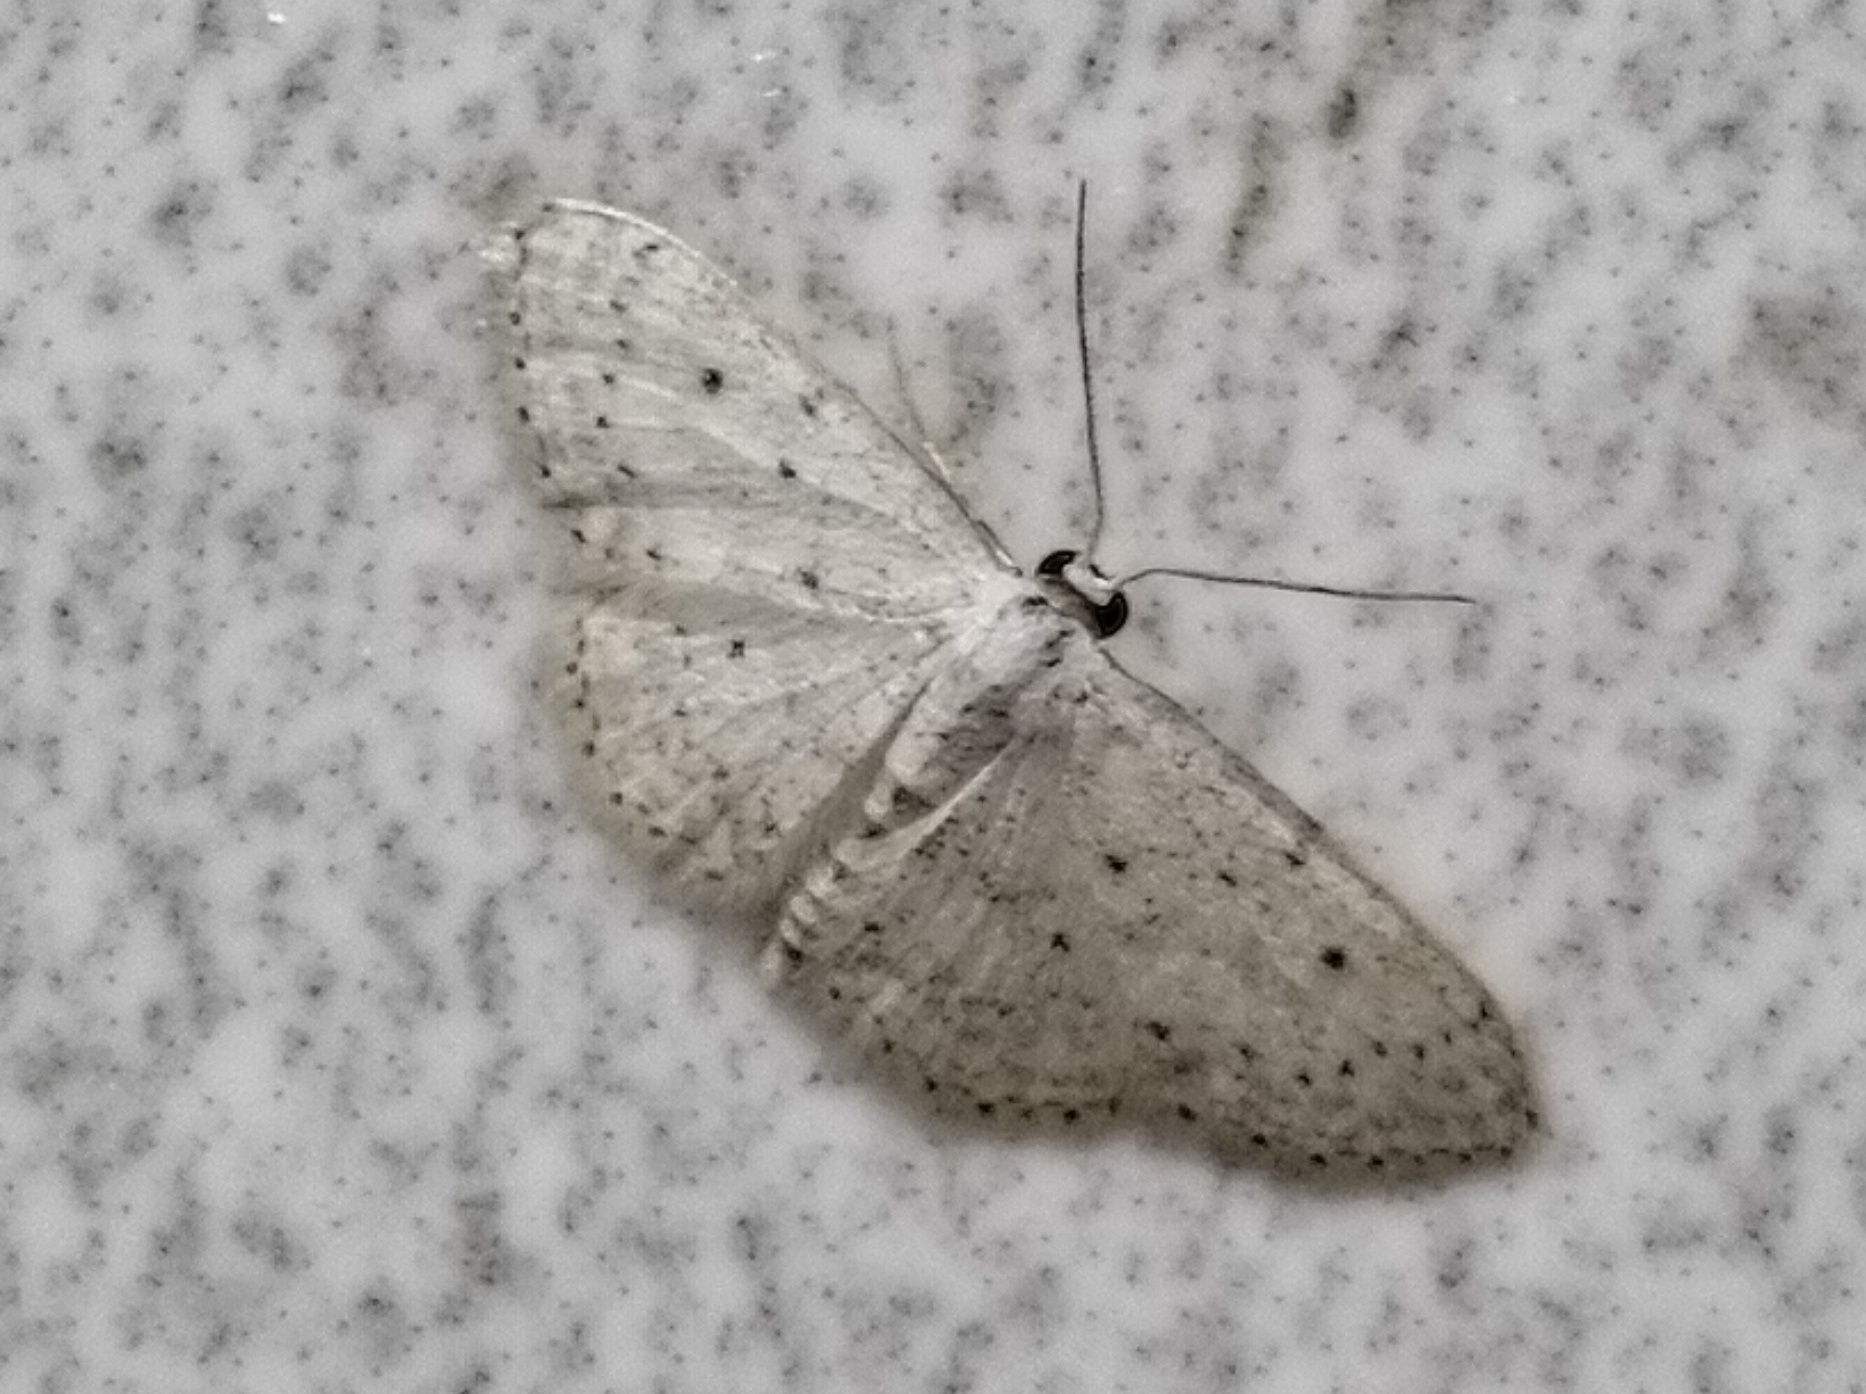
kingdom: Animalia
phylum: Arthropoda
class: Insecta
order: Lepidoptera
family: Geometridae
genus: Idaea
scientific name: Idaea seriata
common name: Small dusty wave
